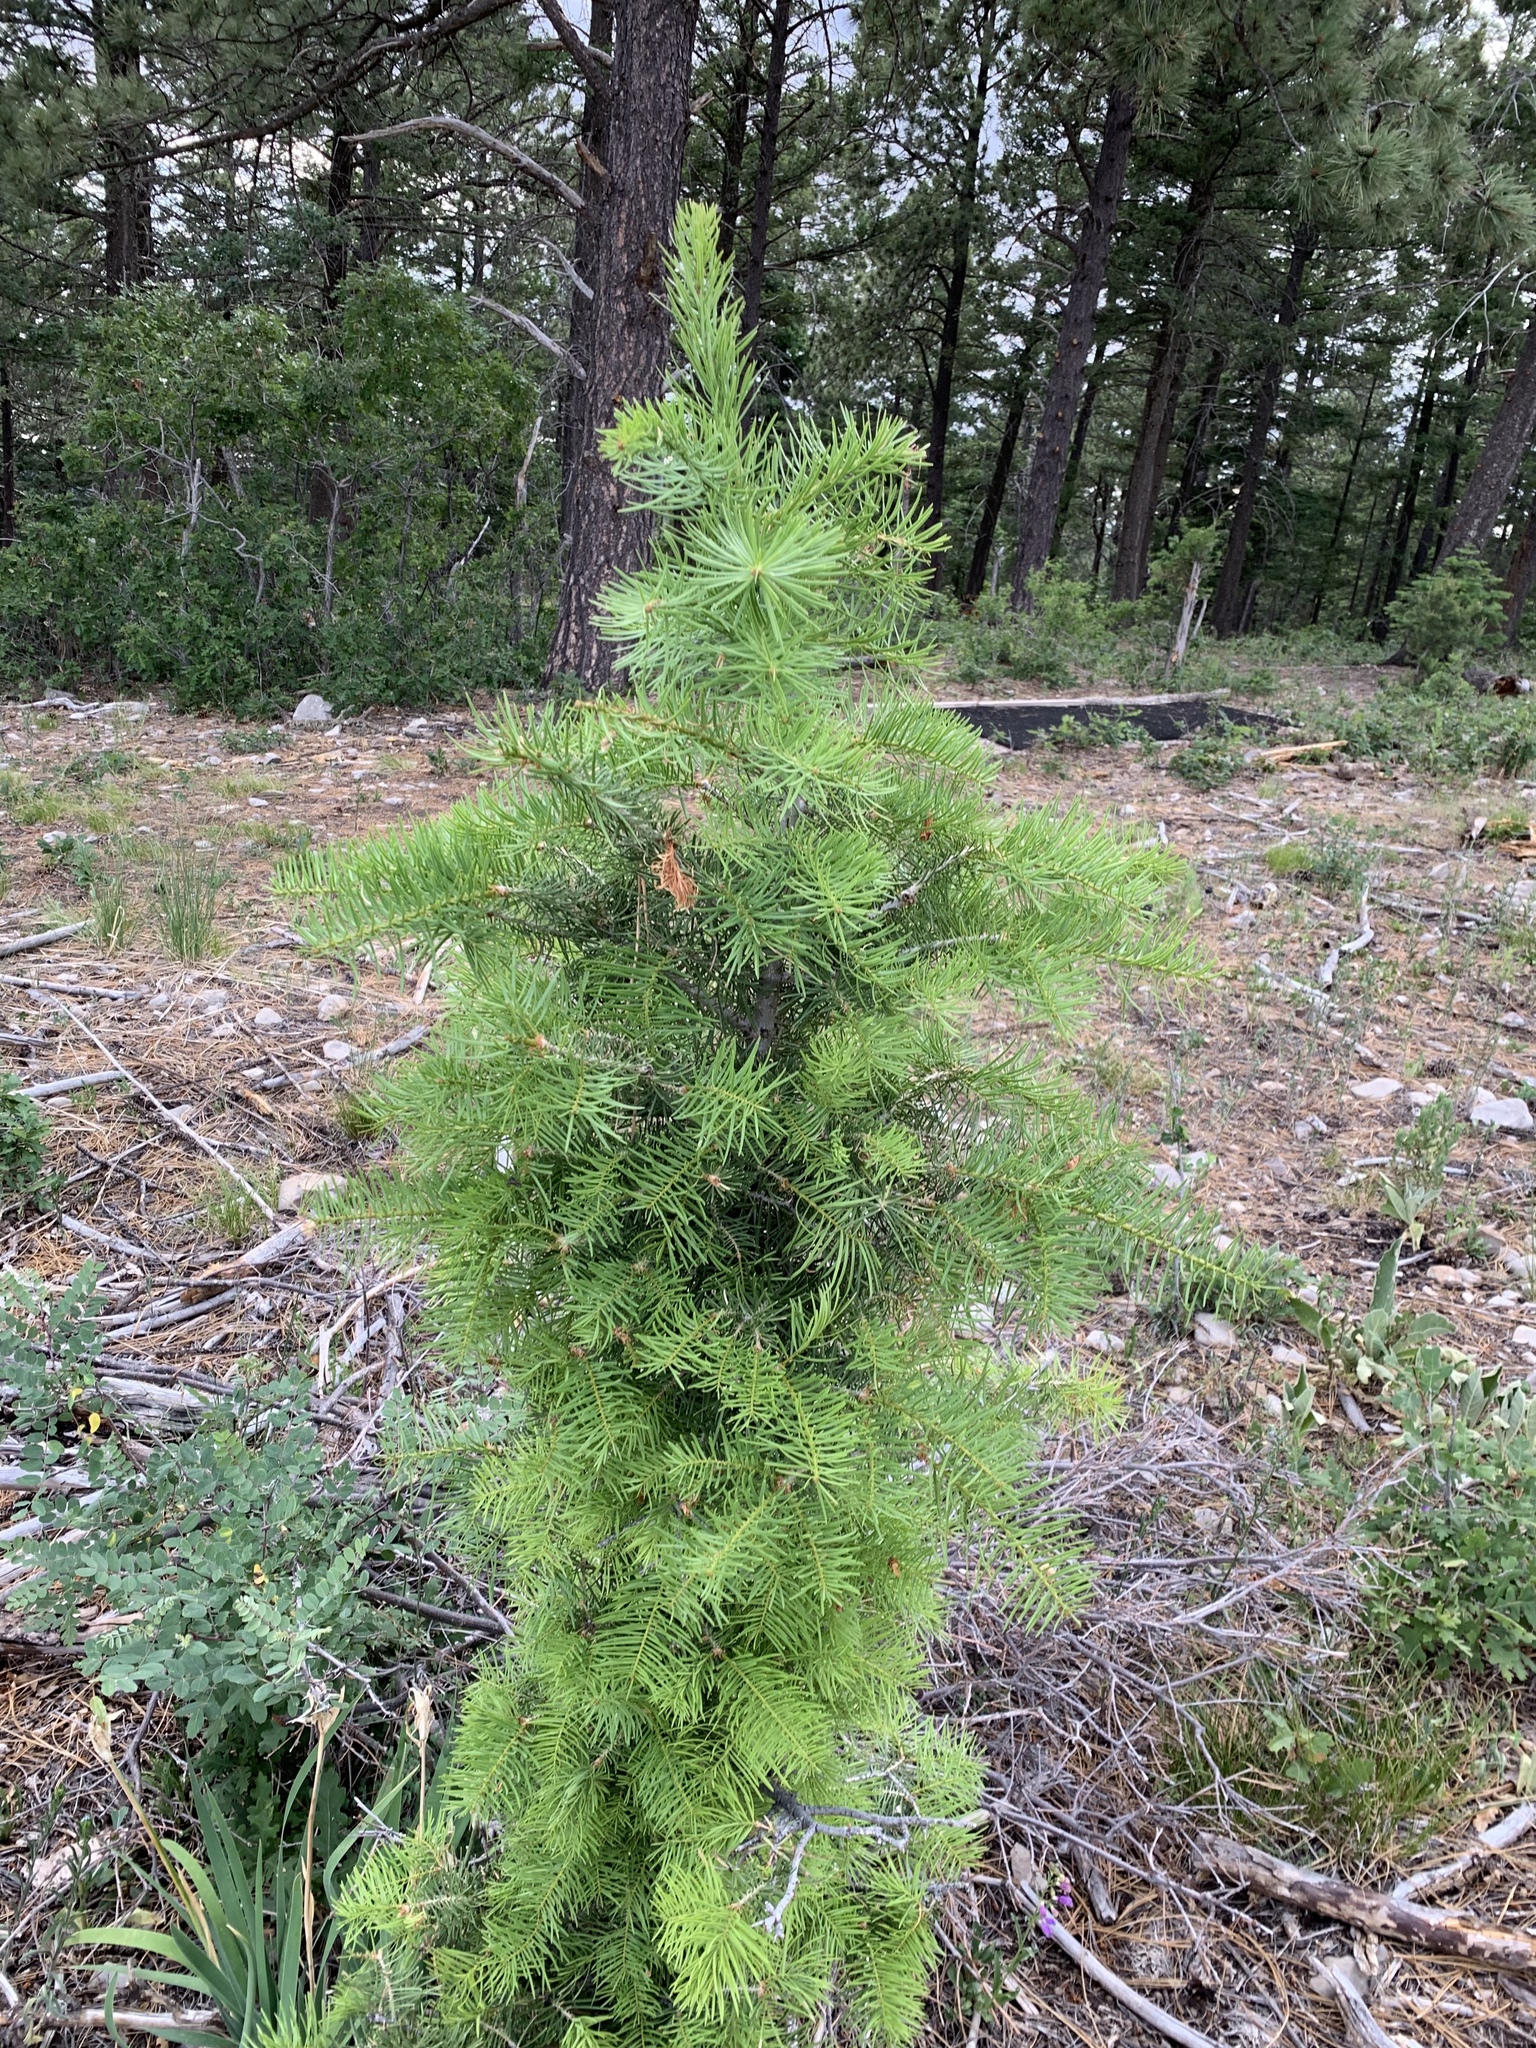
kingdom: Plantae
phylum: Tracheophyta
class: Pinopsida
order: Pinales
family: Pinaceae
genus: Abies
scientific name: Abies concolor
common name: Colorado fir
